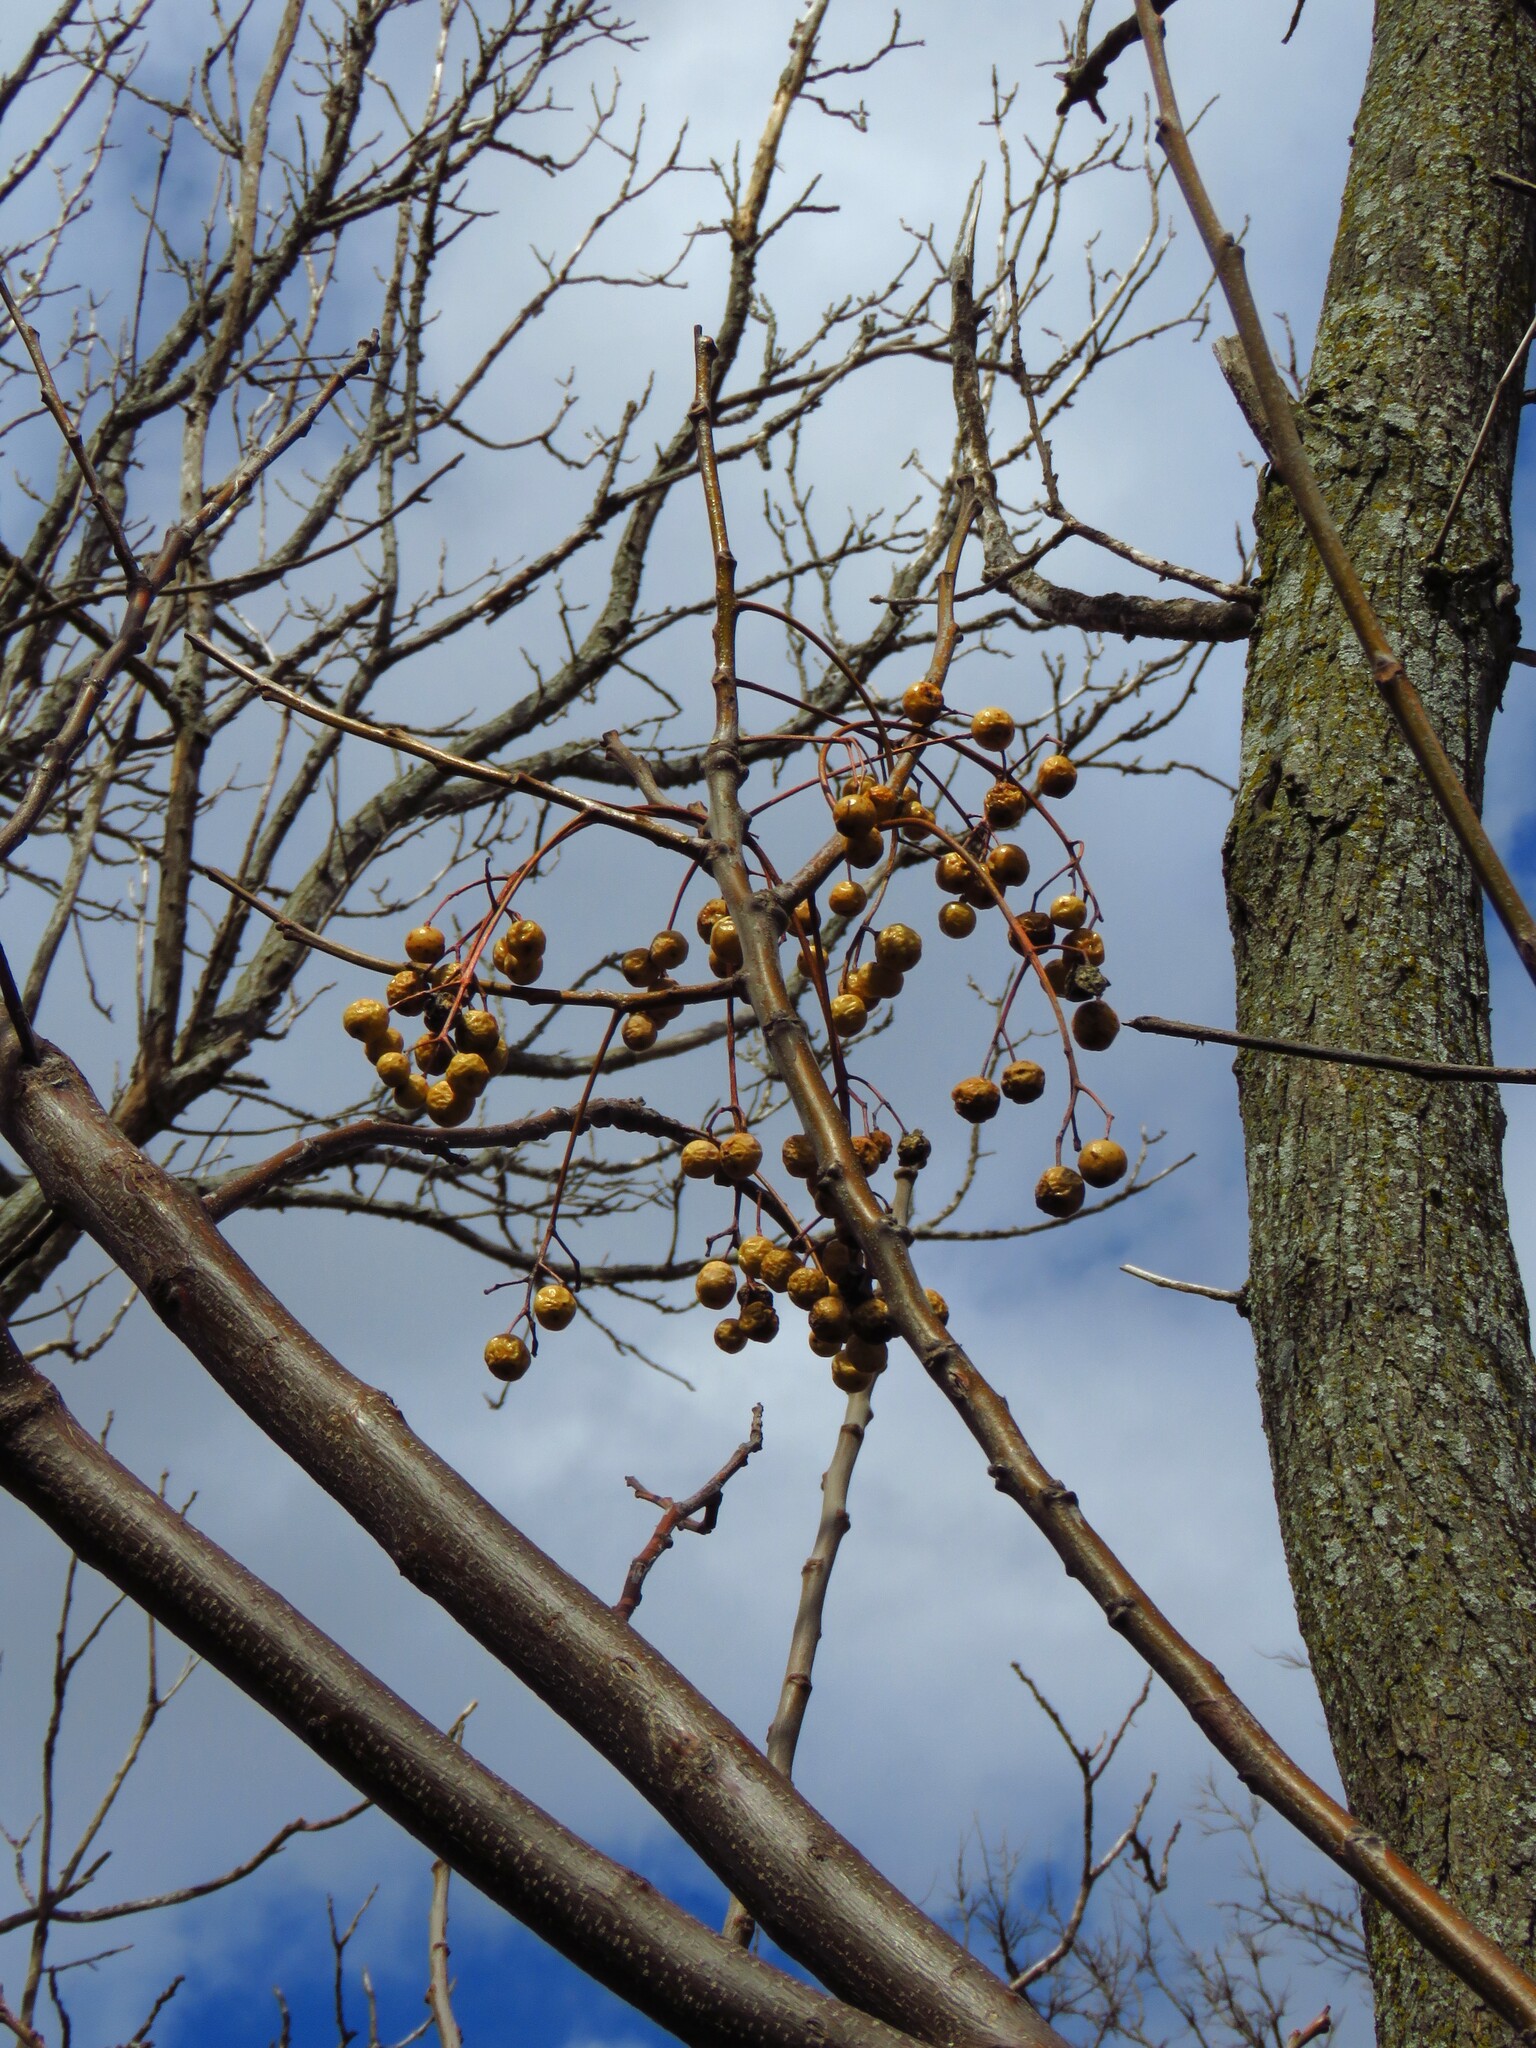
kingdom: Plantae
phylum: Tracheophyta
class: Magnoliopsida
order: Sapindales
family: Meliaceae
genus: Melia
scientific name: Melia azedarach
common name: Chinaberrytree
